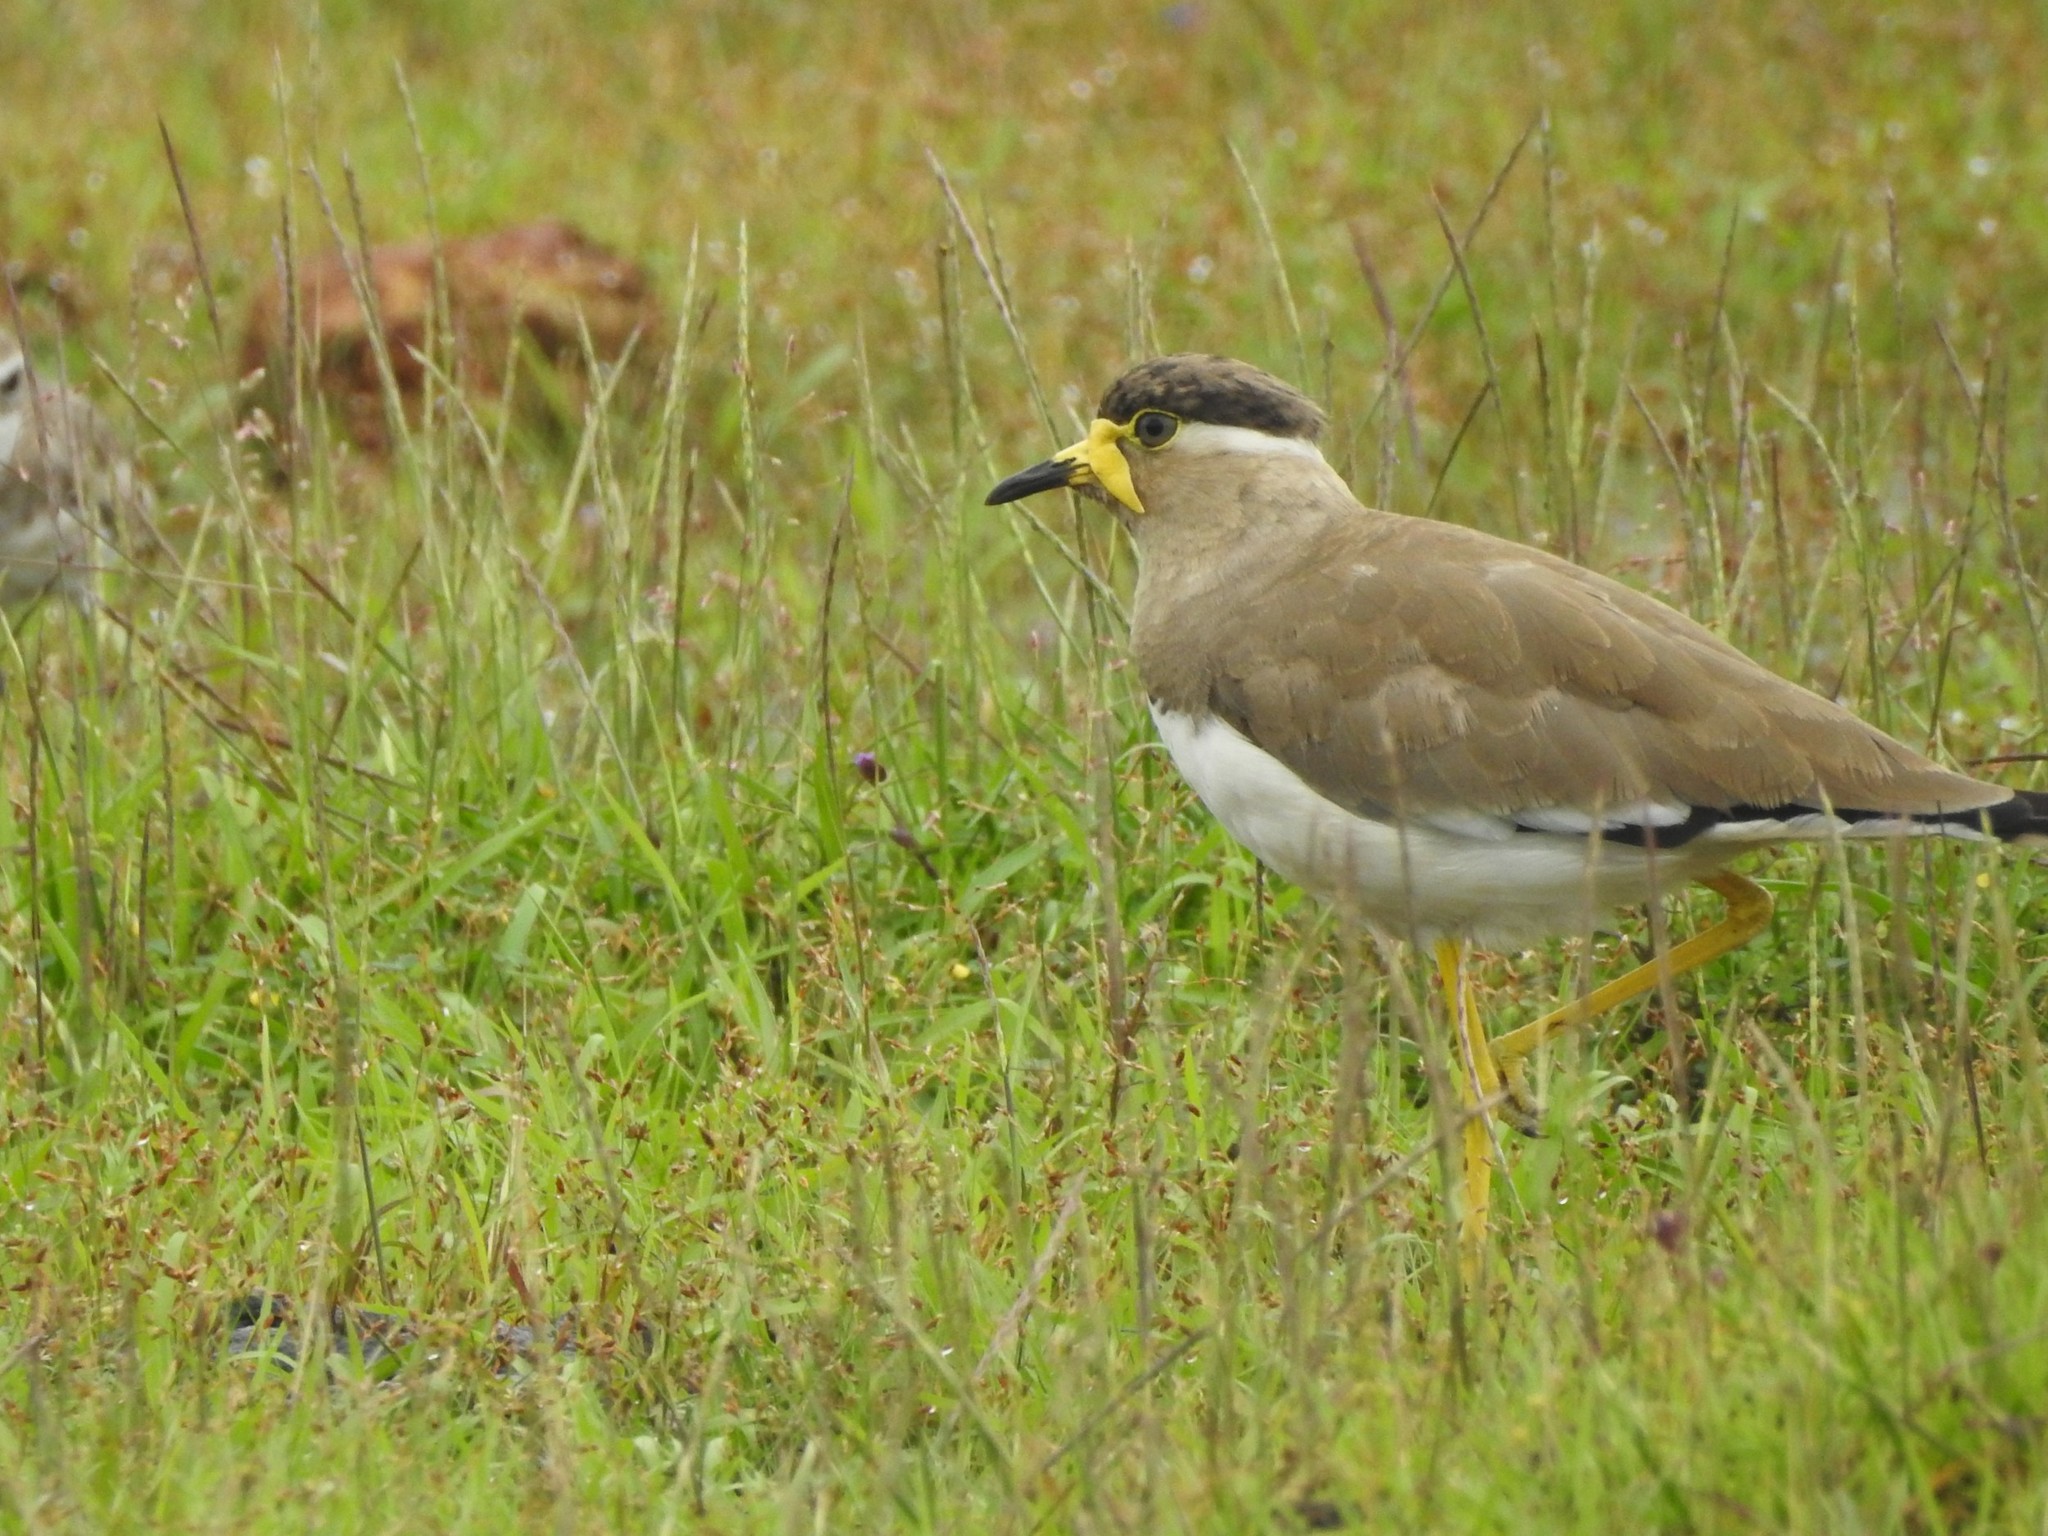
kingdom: Animalia
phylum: Chordata
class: Aves
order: Charadriiformes
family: Charadriidae
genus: Vanellus
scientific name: Vanellus malabaricus
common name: Yellow-wattled lapwing
